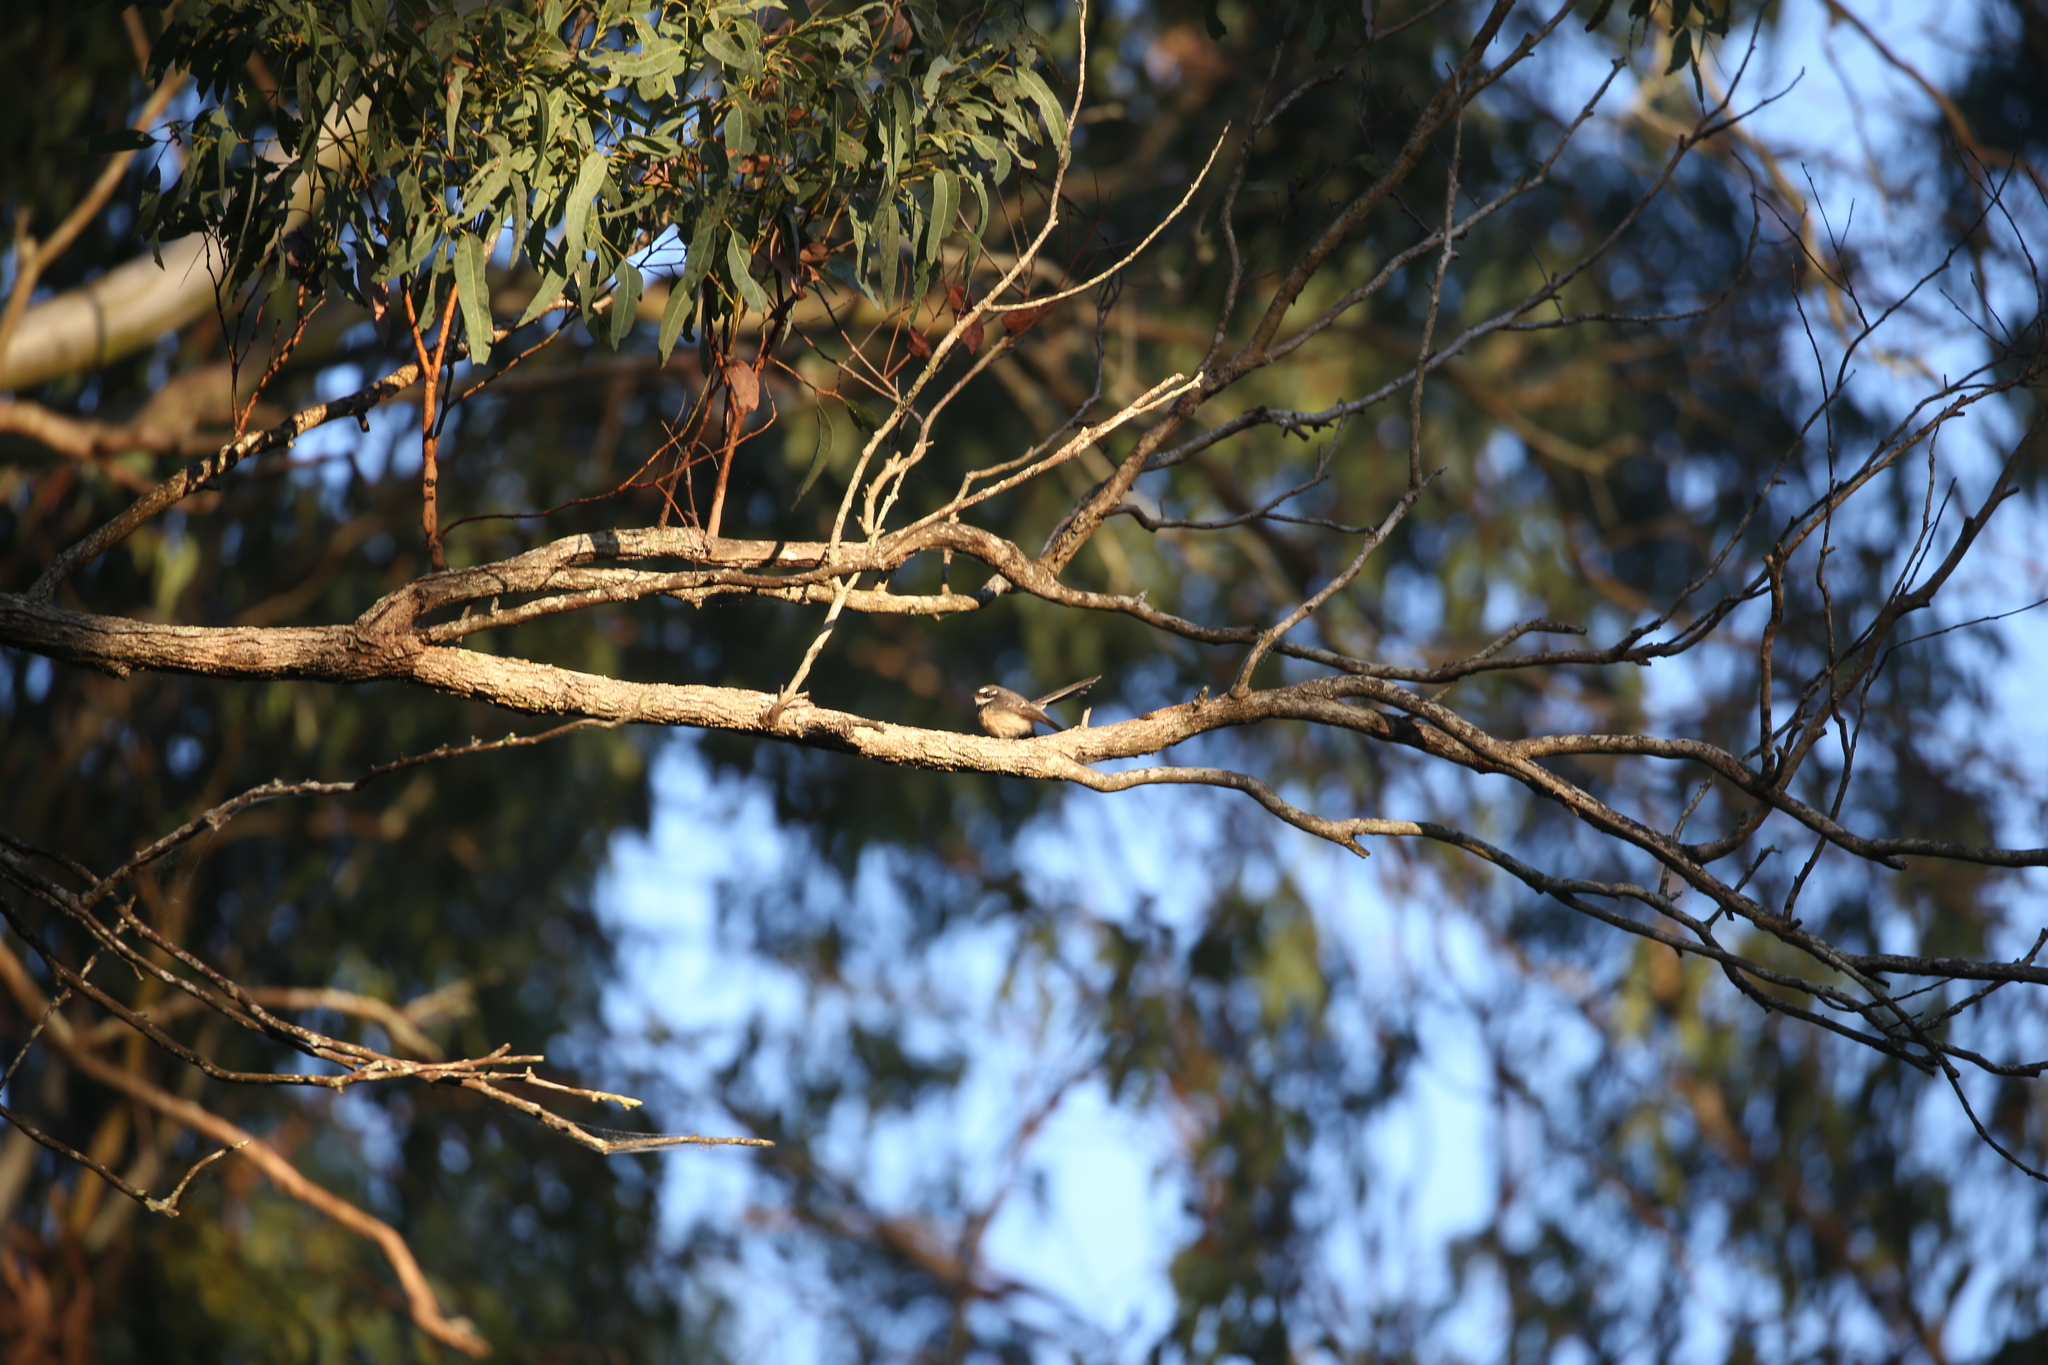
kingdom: Animalia
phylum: Chordata
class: Aves
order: Passeriformes
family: Rhipiduridae
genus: Rhipidura
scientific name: Rhipidura albiscapa
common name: Grey fantail
